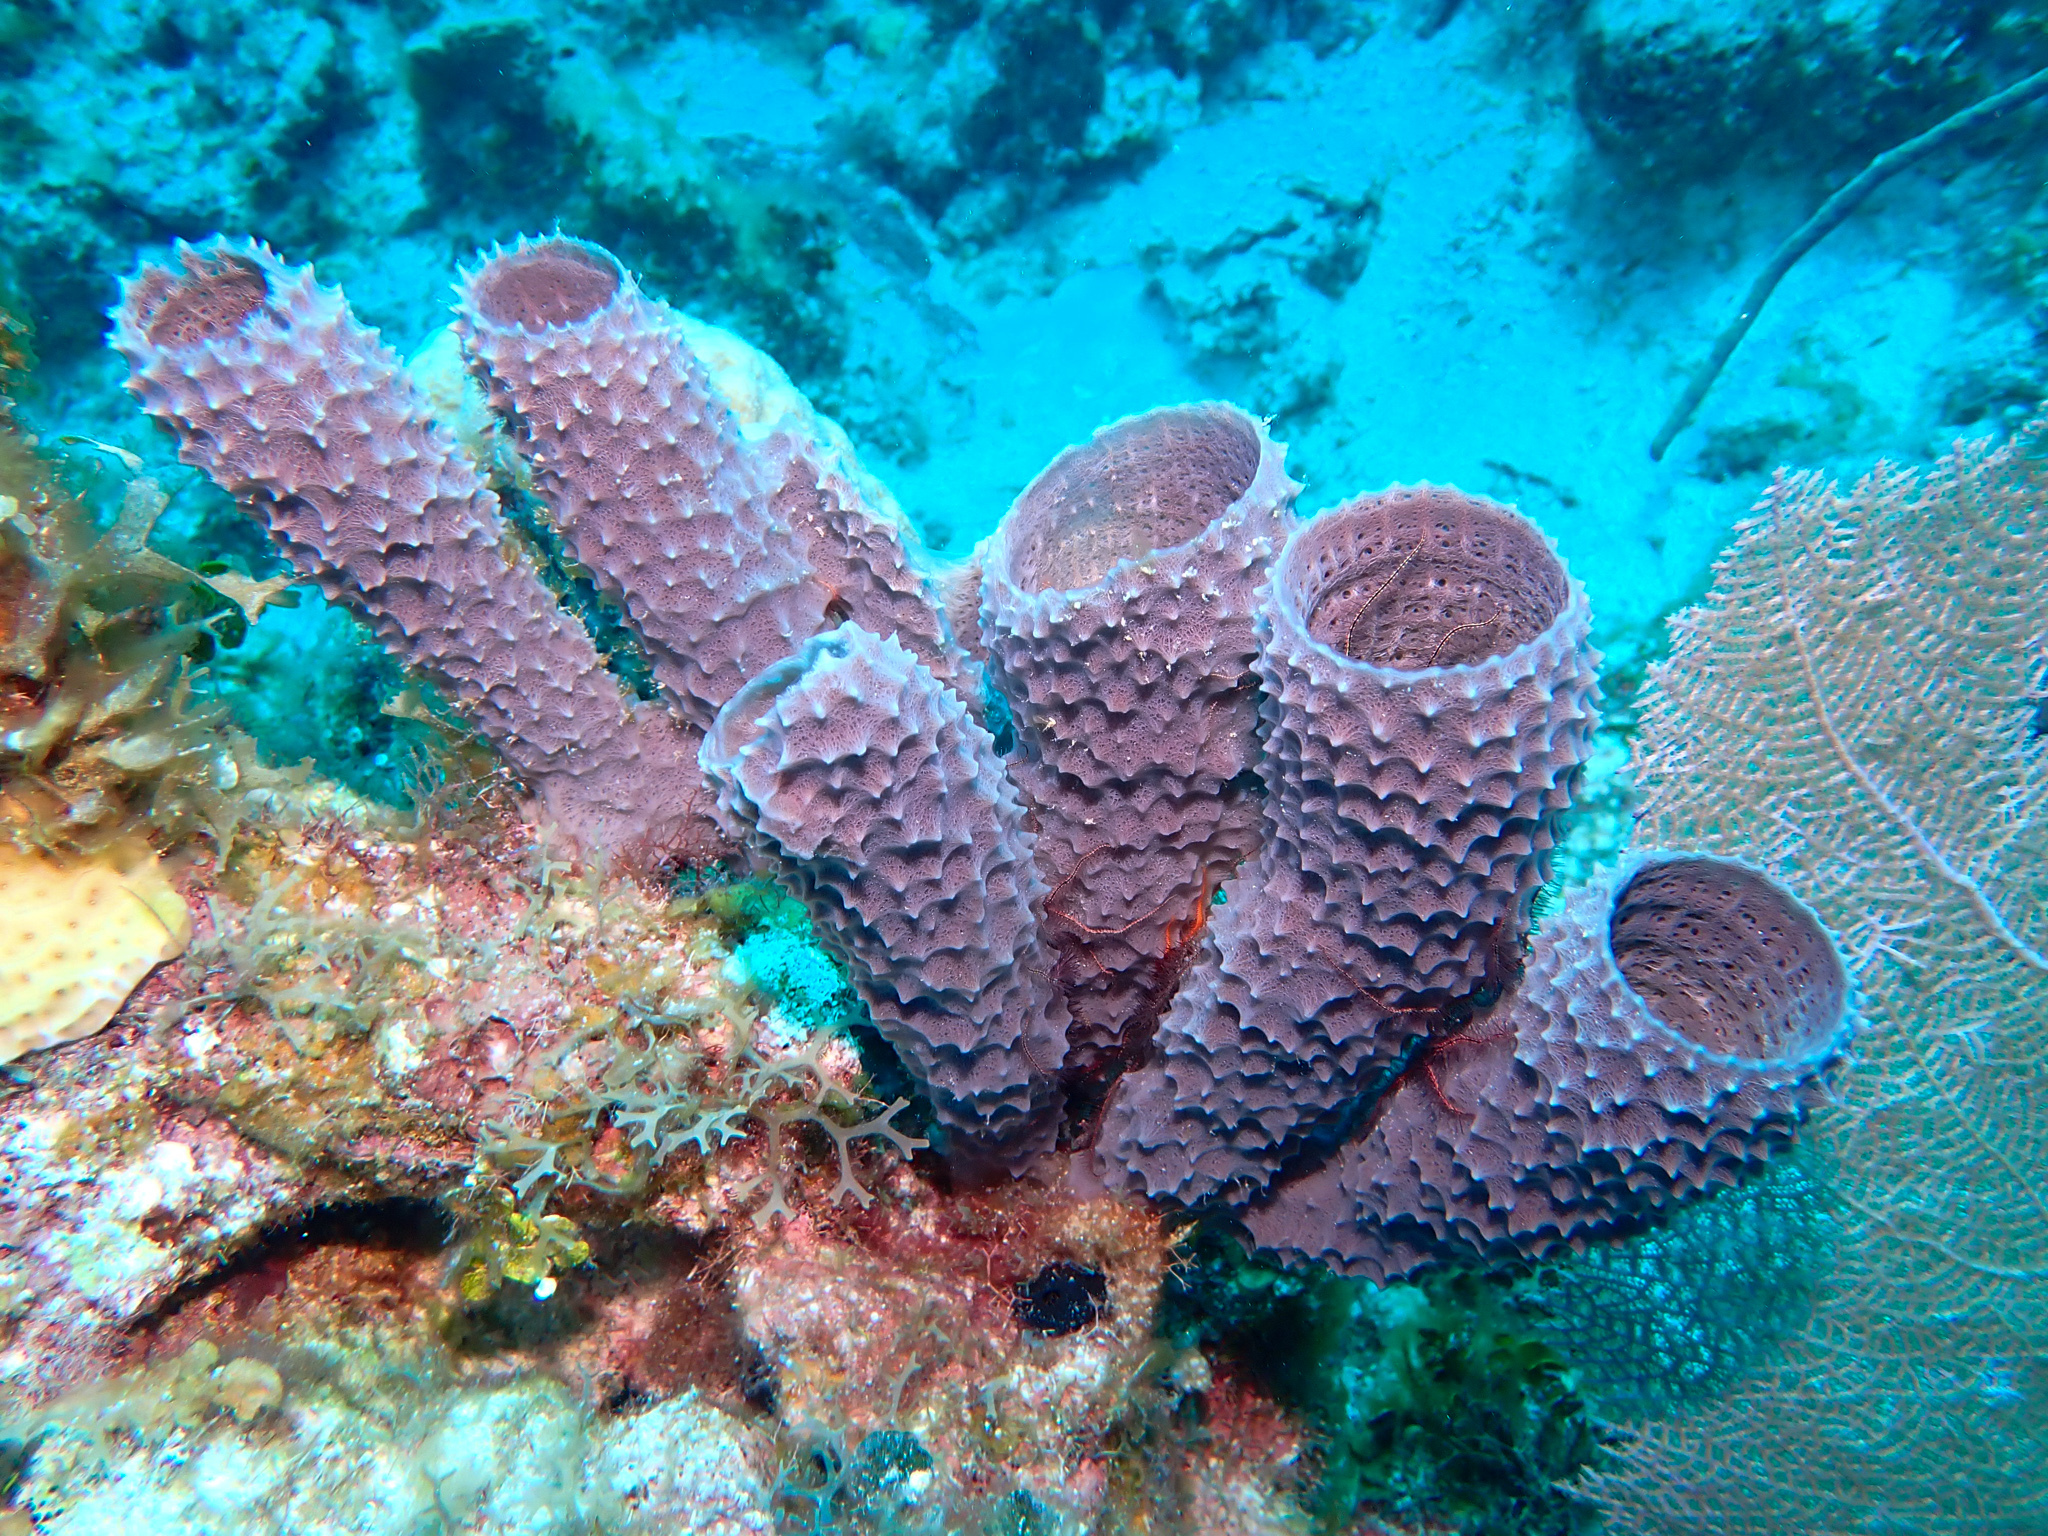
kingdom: Animalia
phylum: Porifera
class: Demospongiae
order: Haplosclerida
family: Callyspongiidae
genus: Callyspongia
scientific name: Callyspongia aculeata
